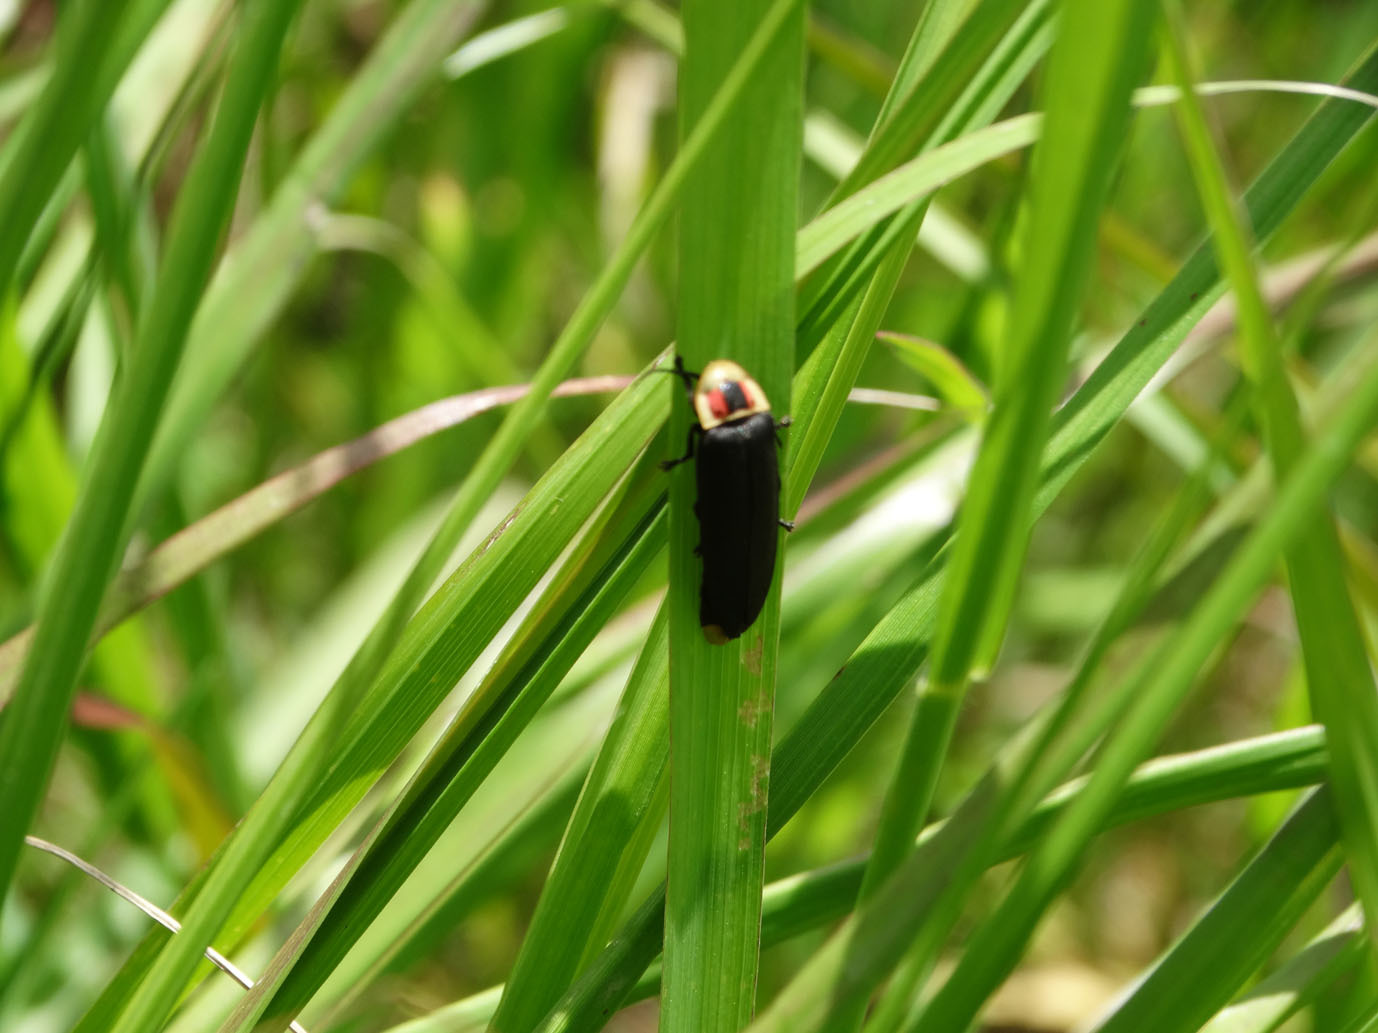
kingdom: Animalia
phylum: Arthropoda
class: Insecta
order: Coleoptera
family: Lampyridae
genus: Photinus
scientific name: Photinus extensus
